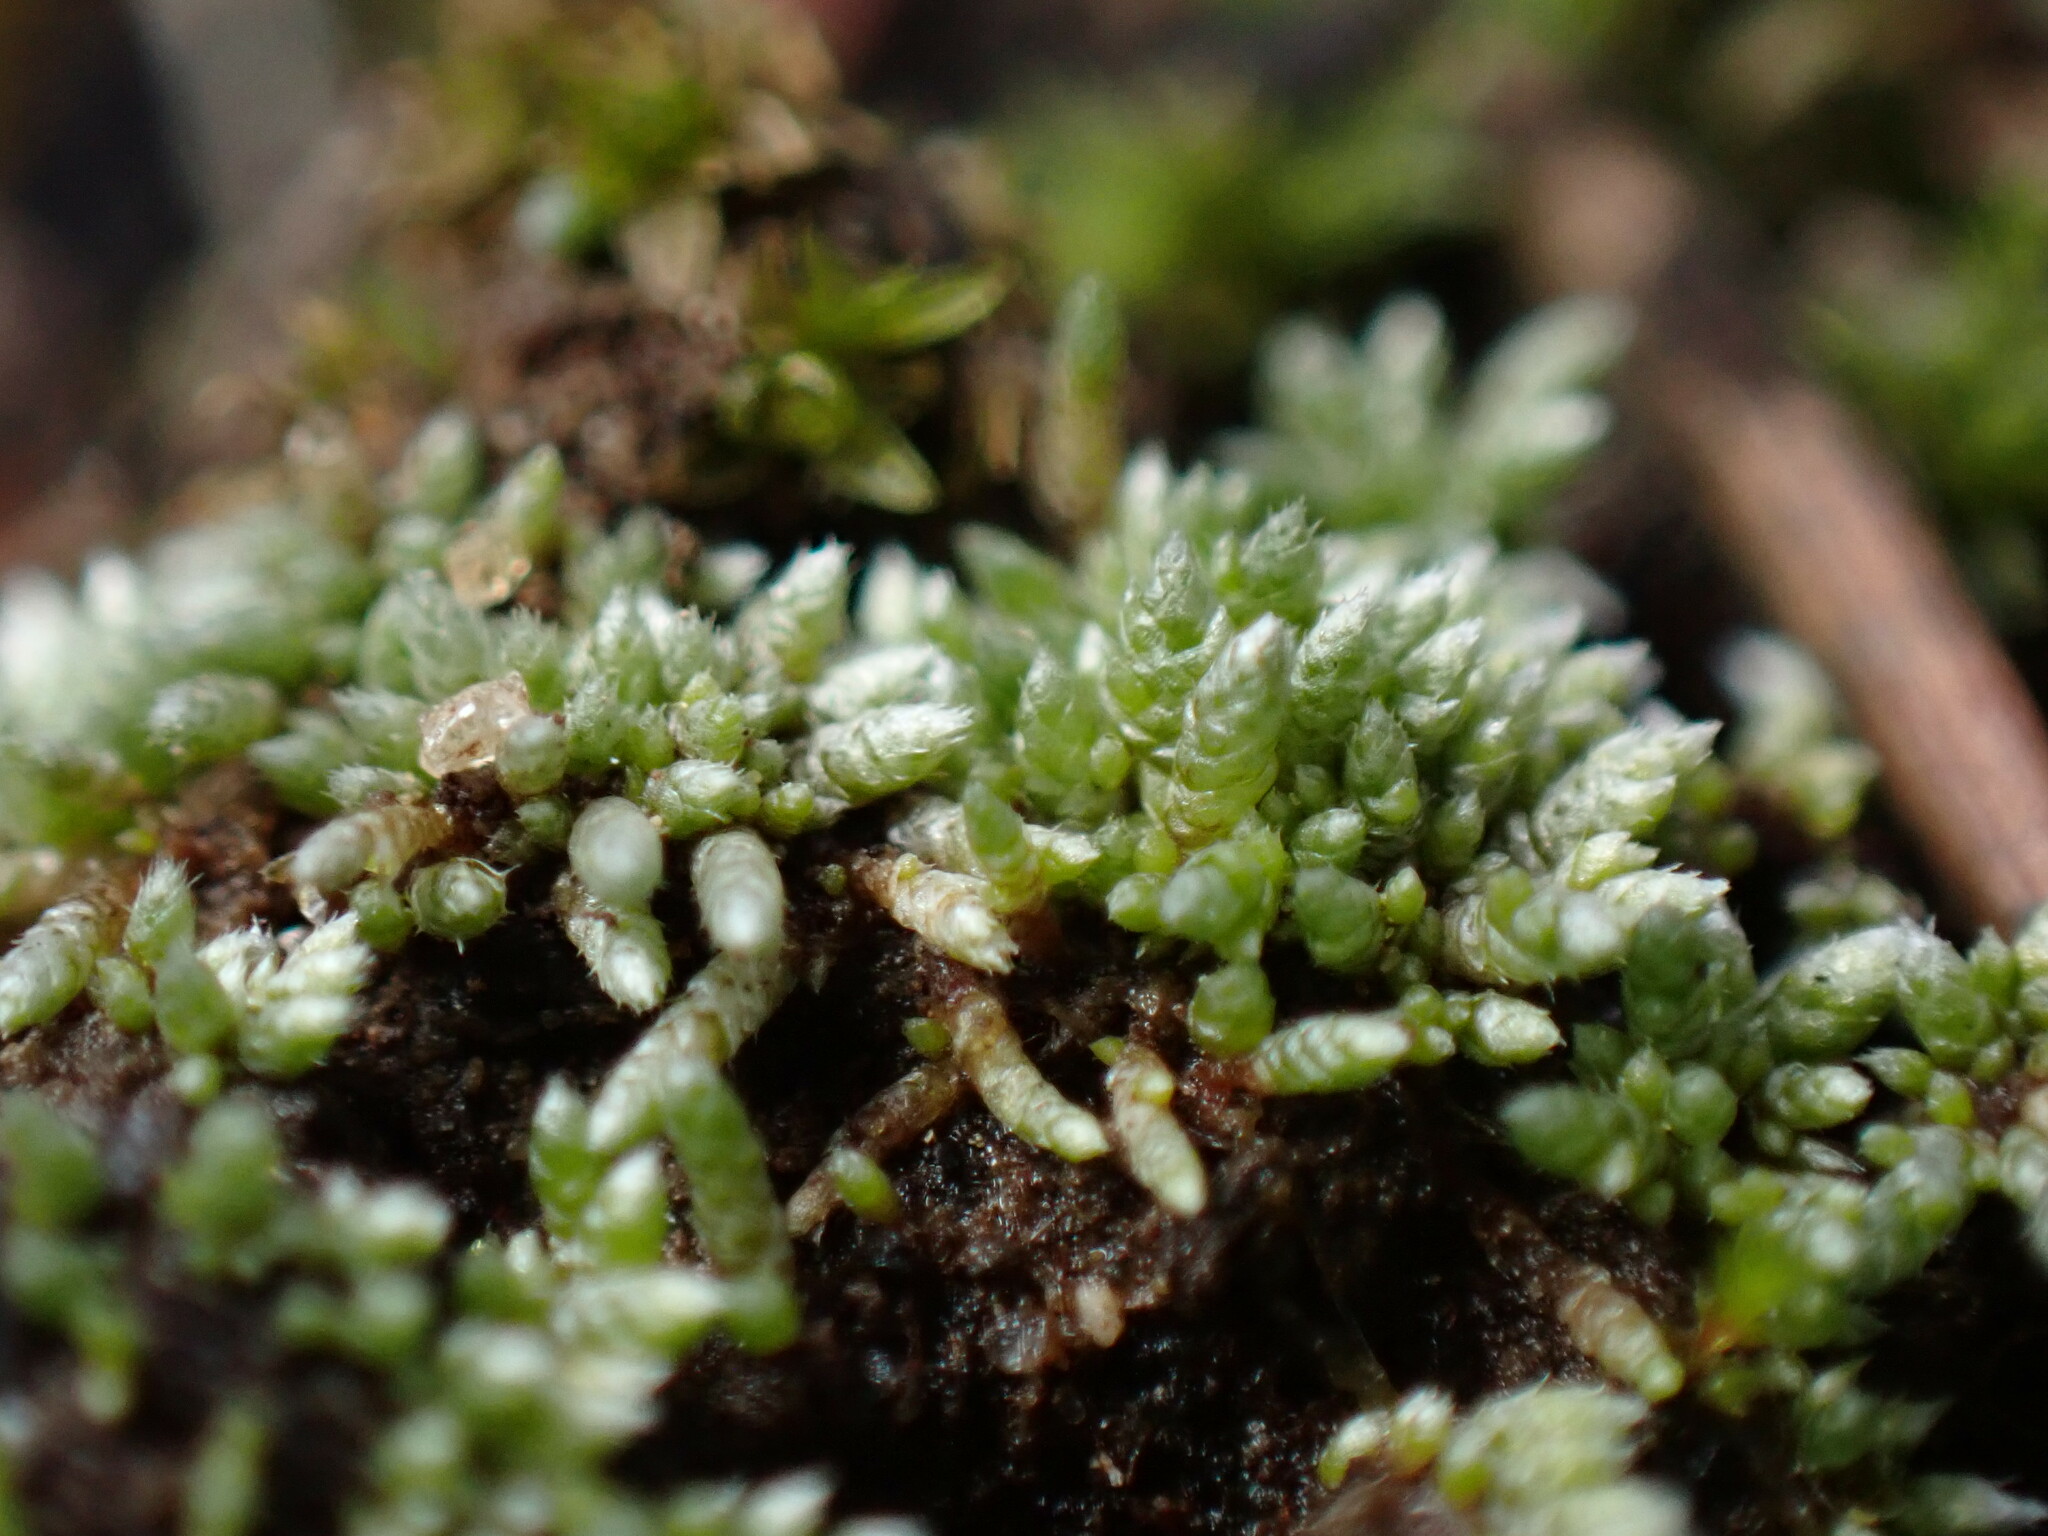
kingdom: Plantae
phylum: Bryophyta
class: Bryopsida
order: Bryales
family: Bryaceae
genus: Bryum
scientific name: Bryum argenteum
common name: Silver-moss
